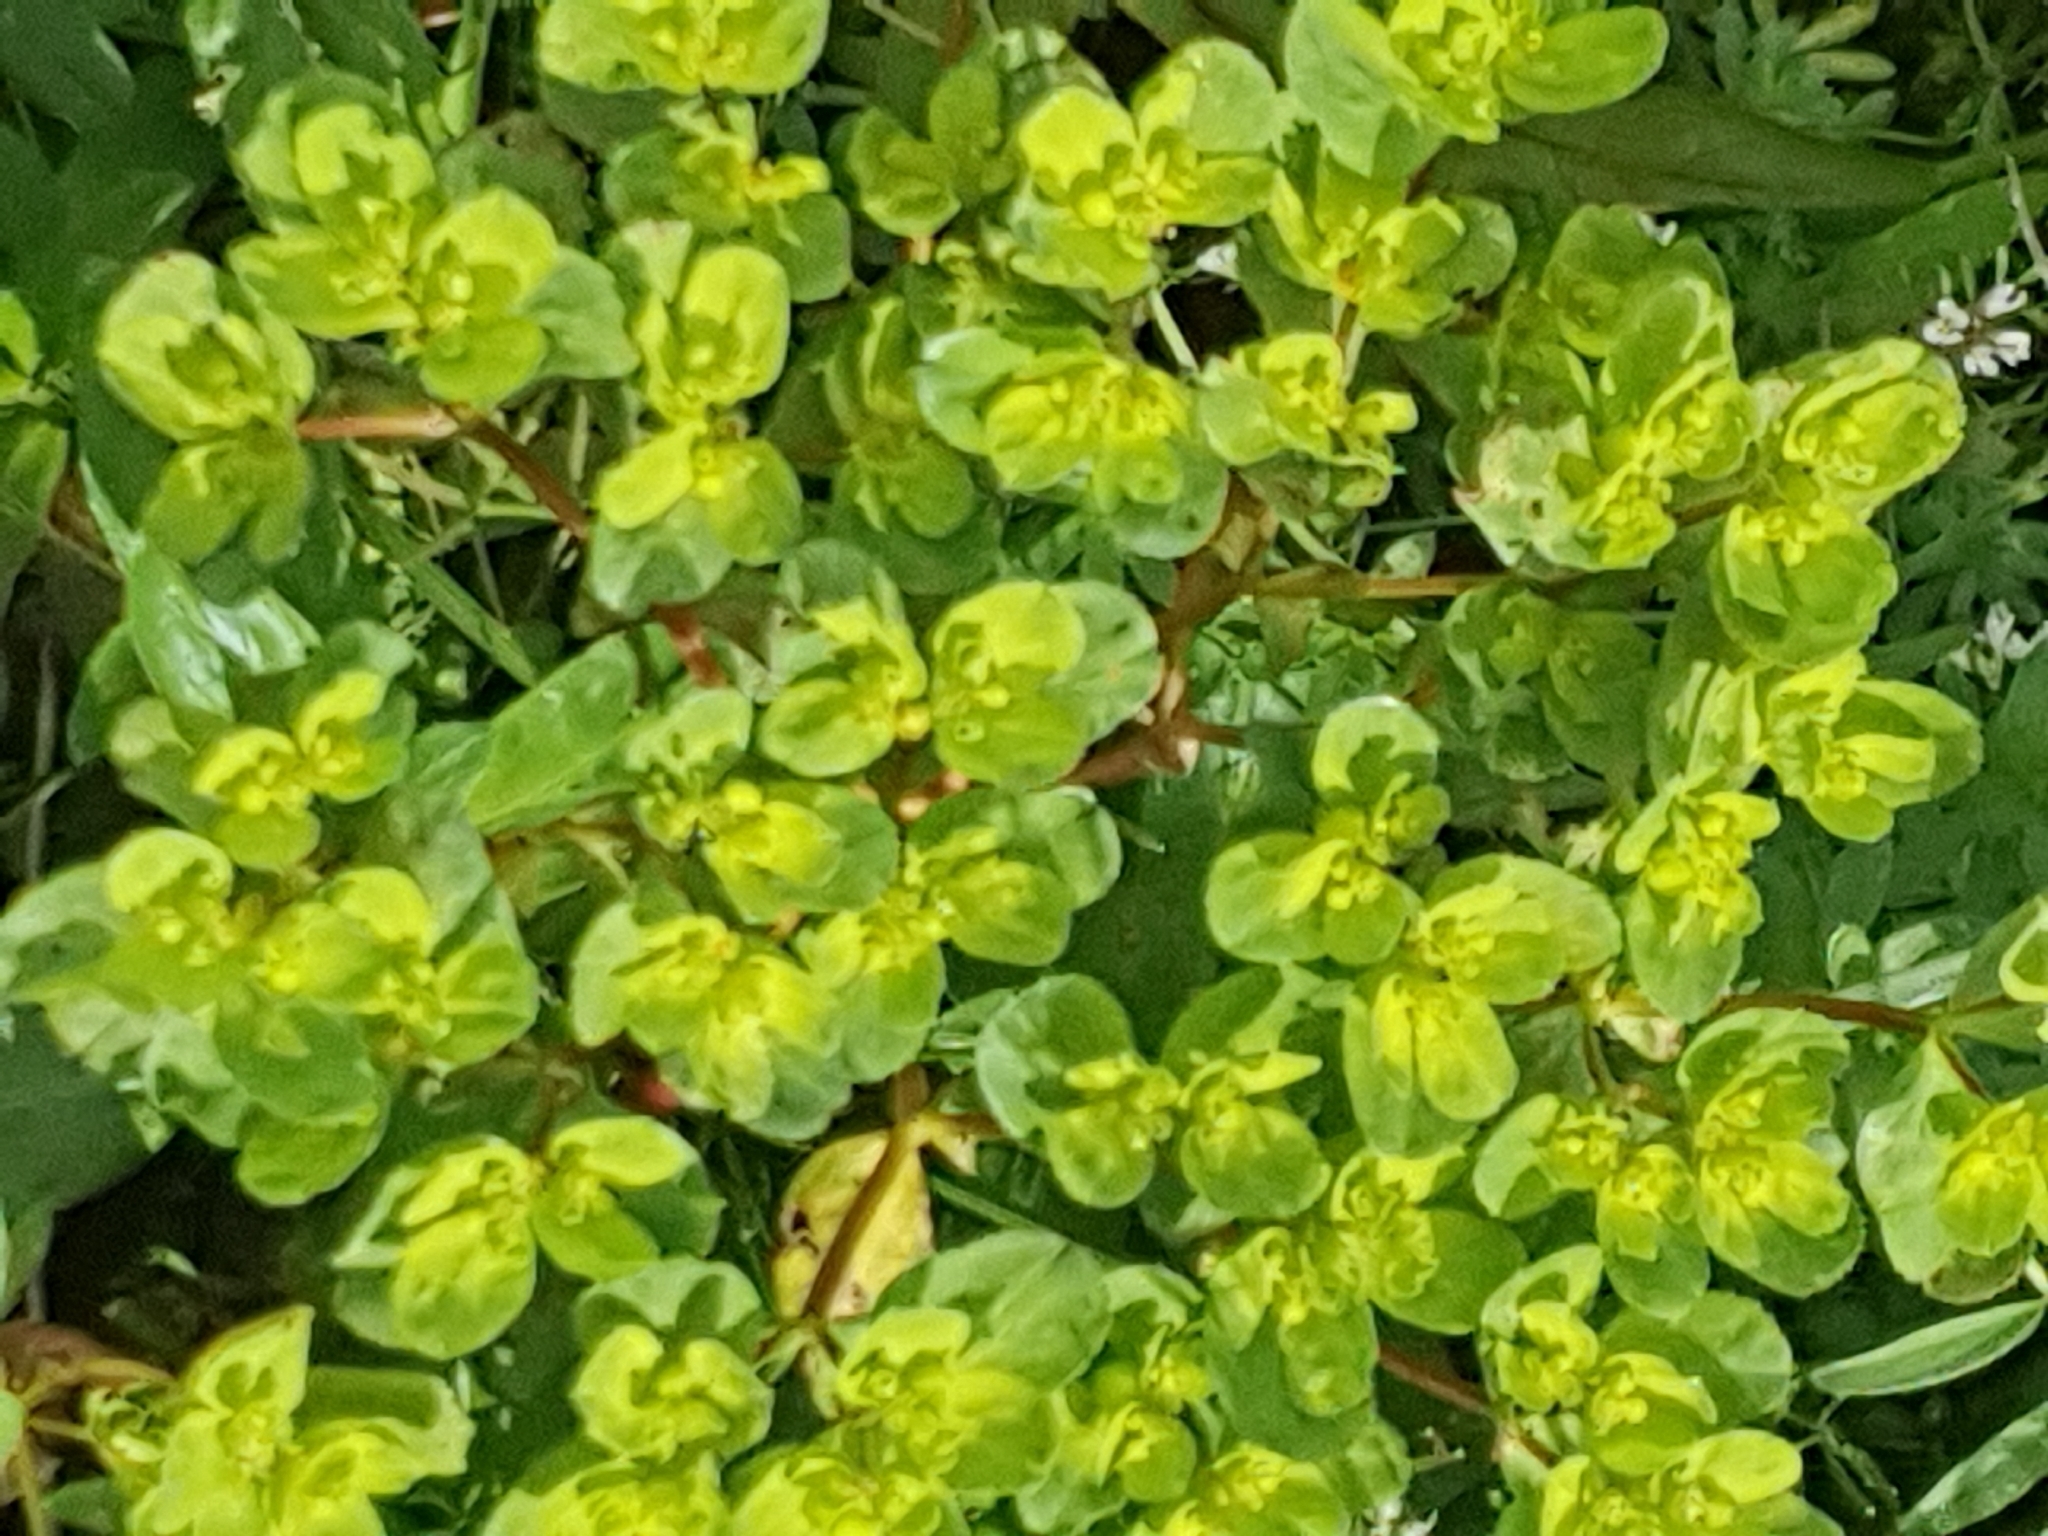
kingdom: Plantae
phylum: Tracheophyta
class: Magnoliopsida
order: Malpighiales
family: Euphorbiaceae
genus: Euphorbia
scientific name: Euphorbia helioscopia
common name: Sun spurge
